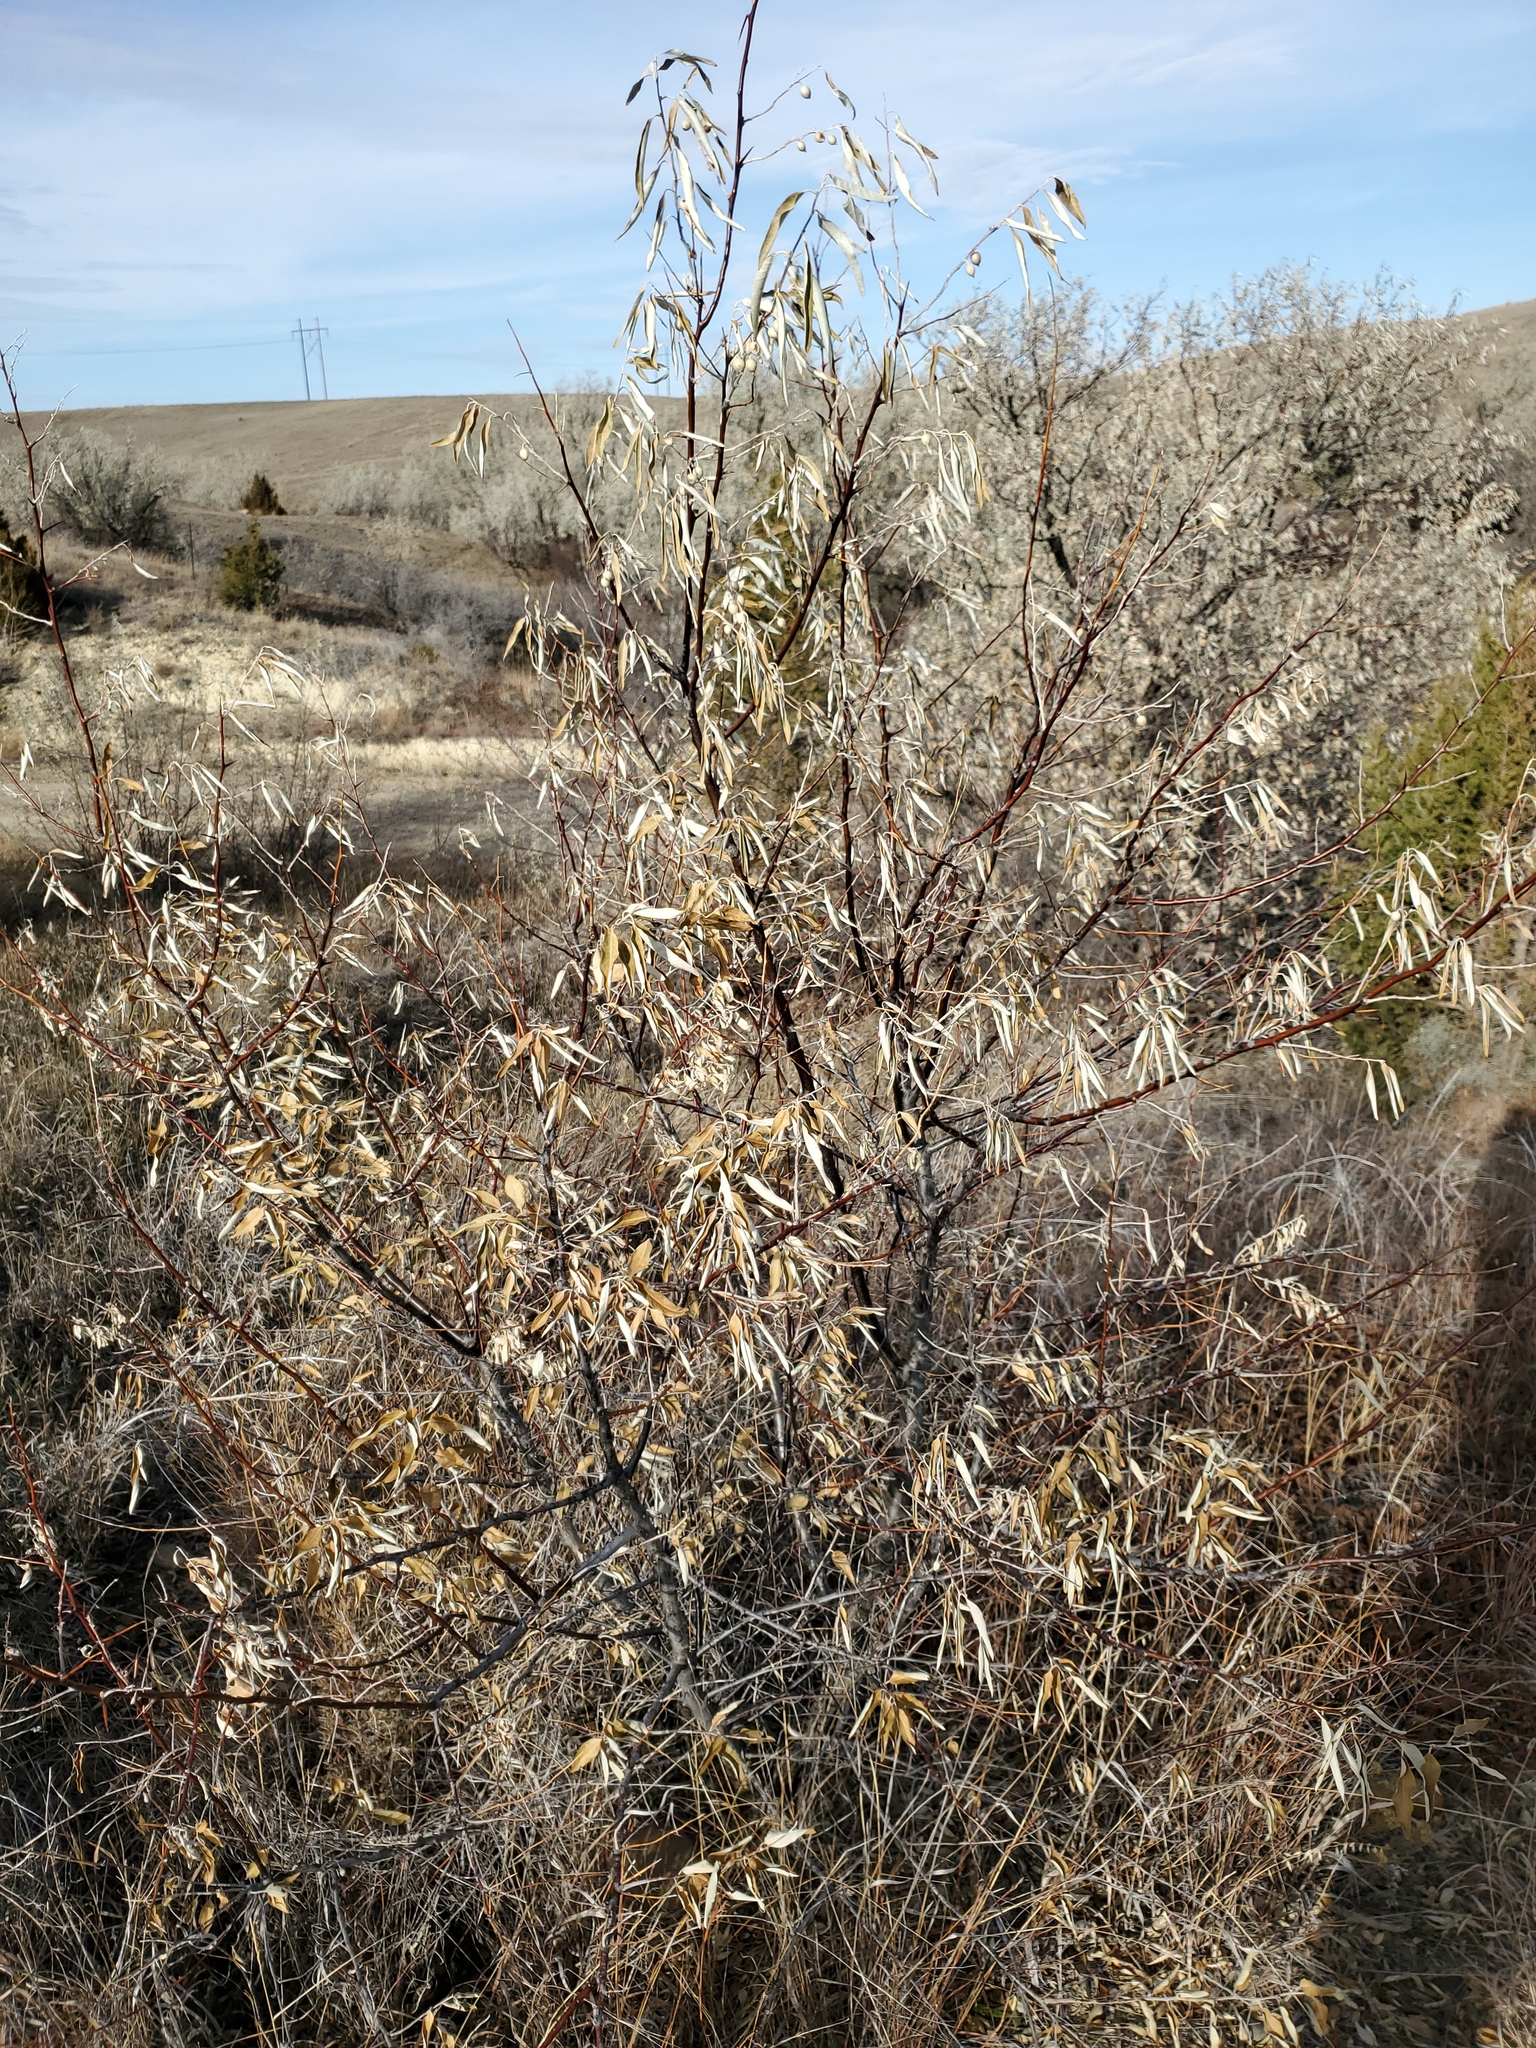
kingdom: Plantae
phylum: Tracheophyta
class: Magnoliopsida
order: Rosales
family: Elaeagnaceae
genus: Elaeagnus
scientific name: Elaeagnus angustifolia
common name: Russian olive
